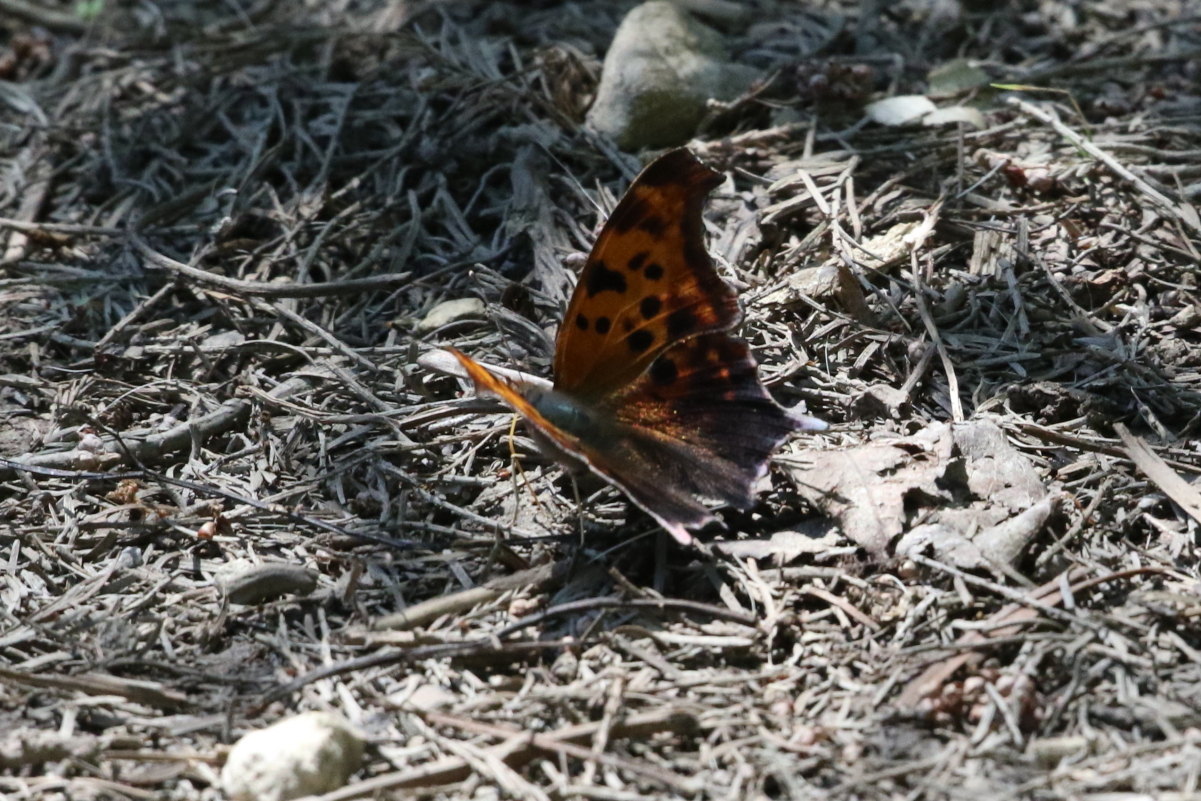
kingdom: Animalia
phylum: Arthropoda
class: Insecta
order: Lepidoptera
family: Nymphalidae
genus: Polygonia
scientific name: Polygonia interrogationis
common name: Question mark
